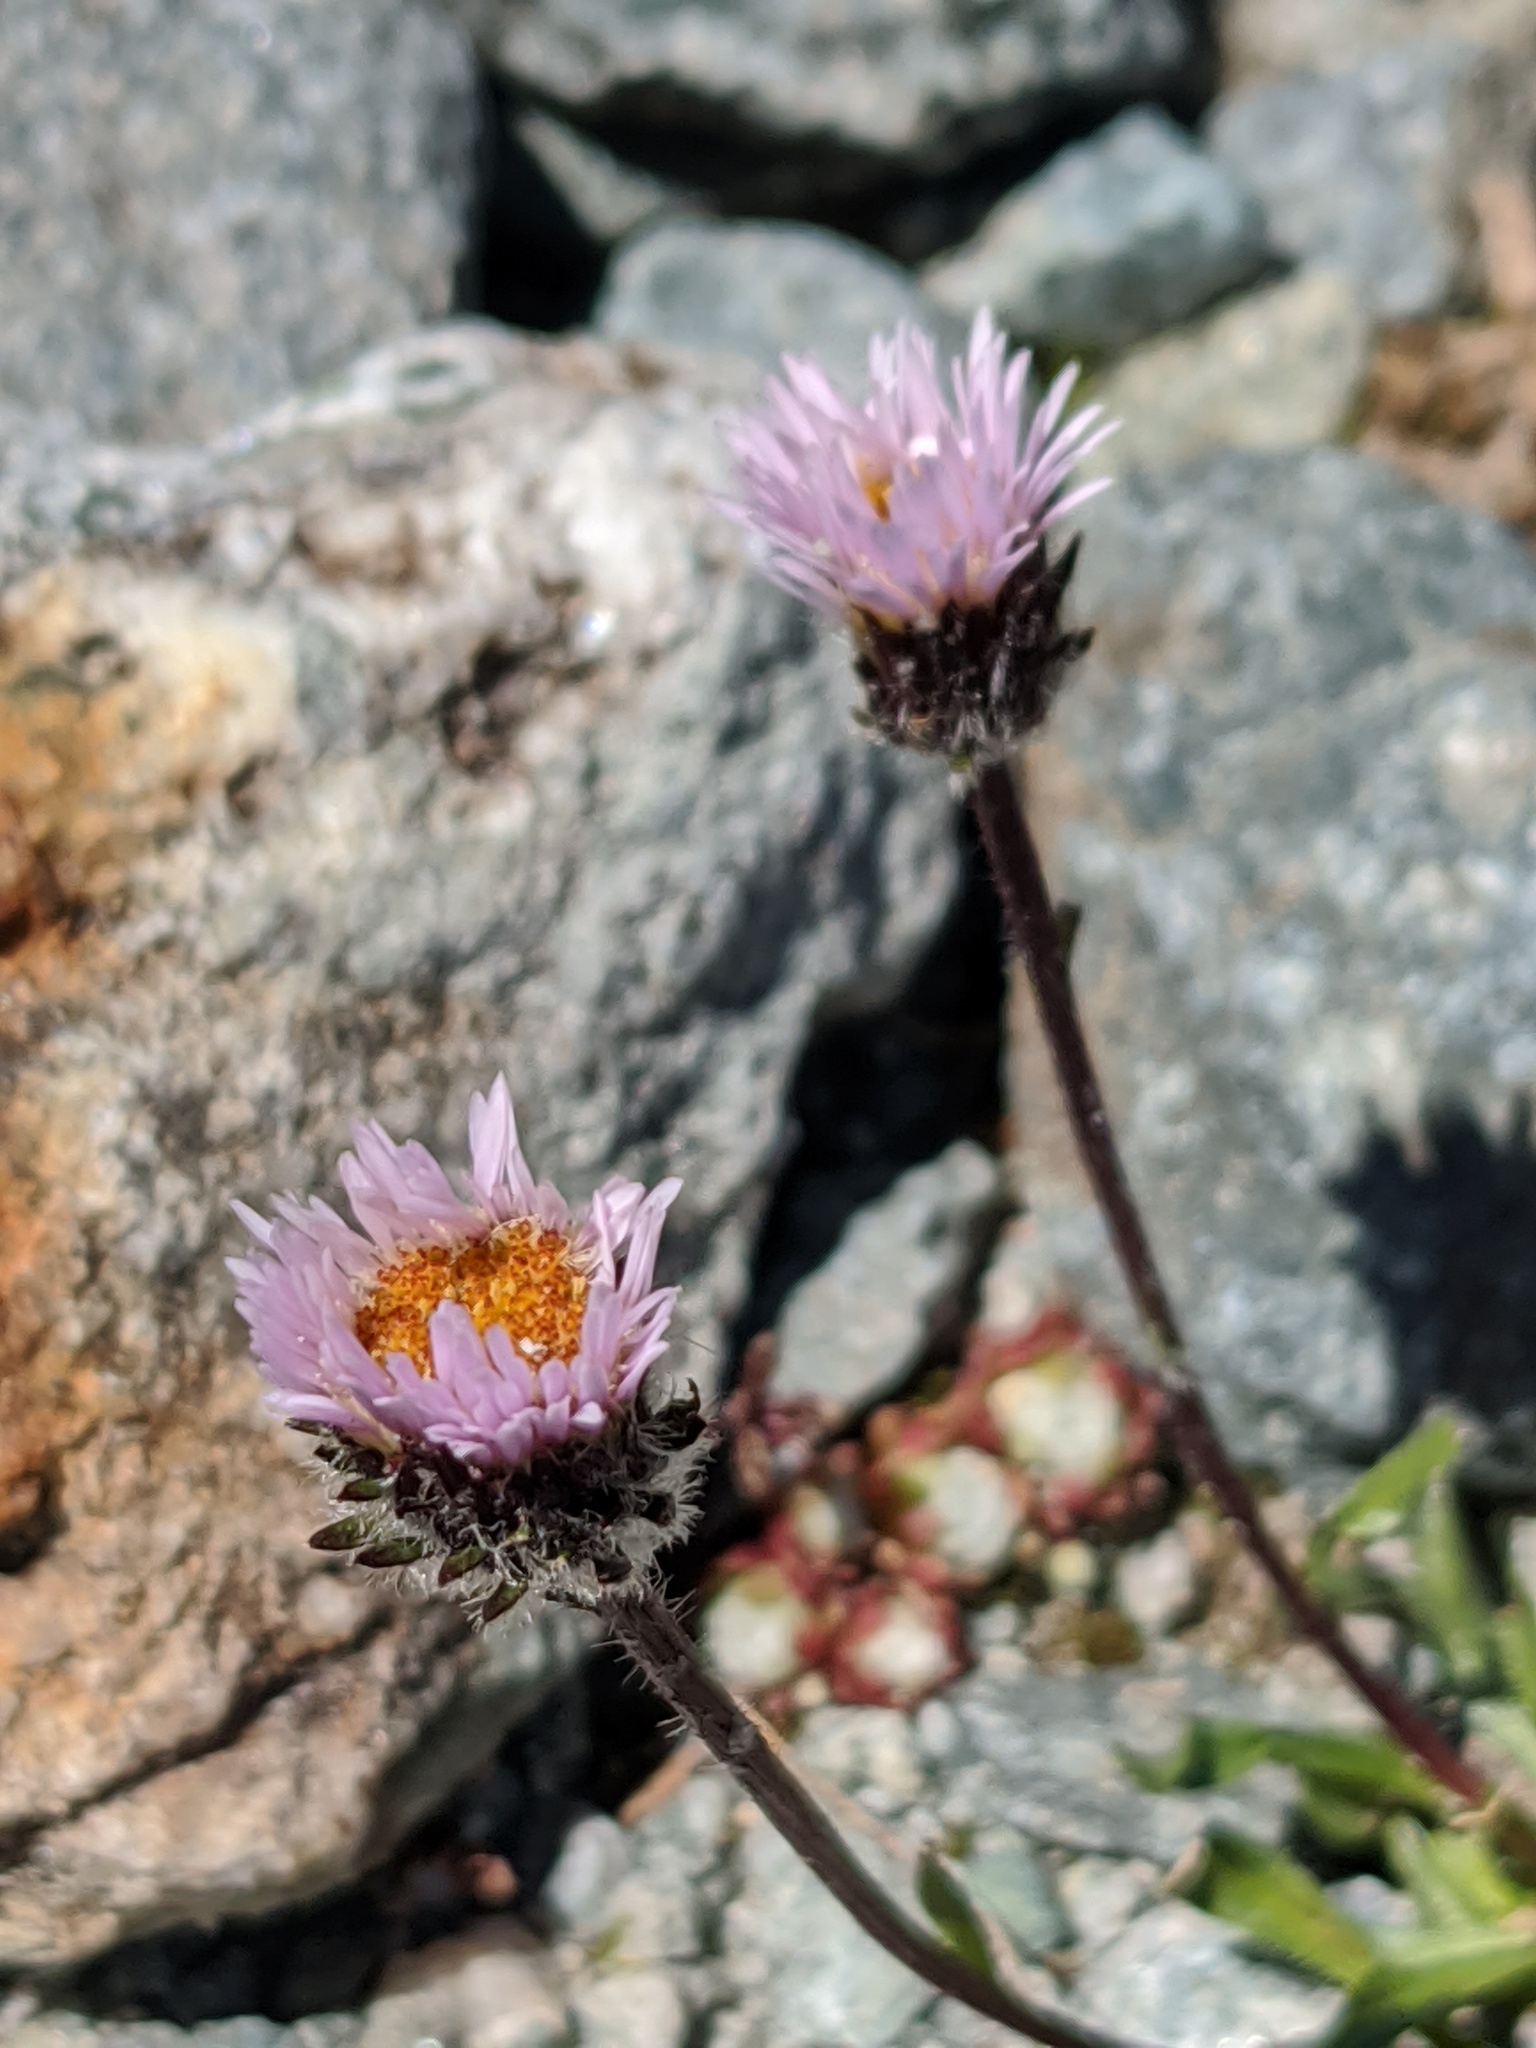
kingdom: Plantae
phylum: Tracheophyta
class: Magnoliopsida
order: Asterales
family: Asteraceae
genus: Erigeron
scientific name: Erigeron uniflorus
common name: Northern daisy
